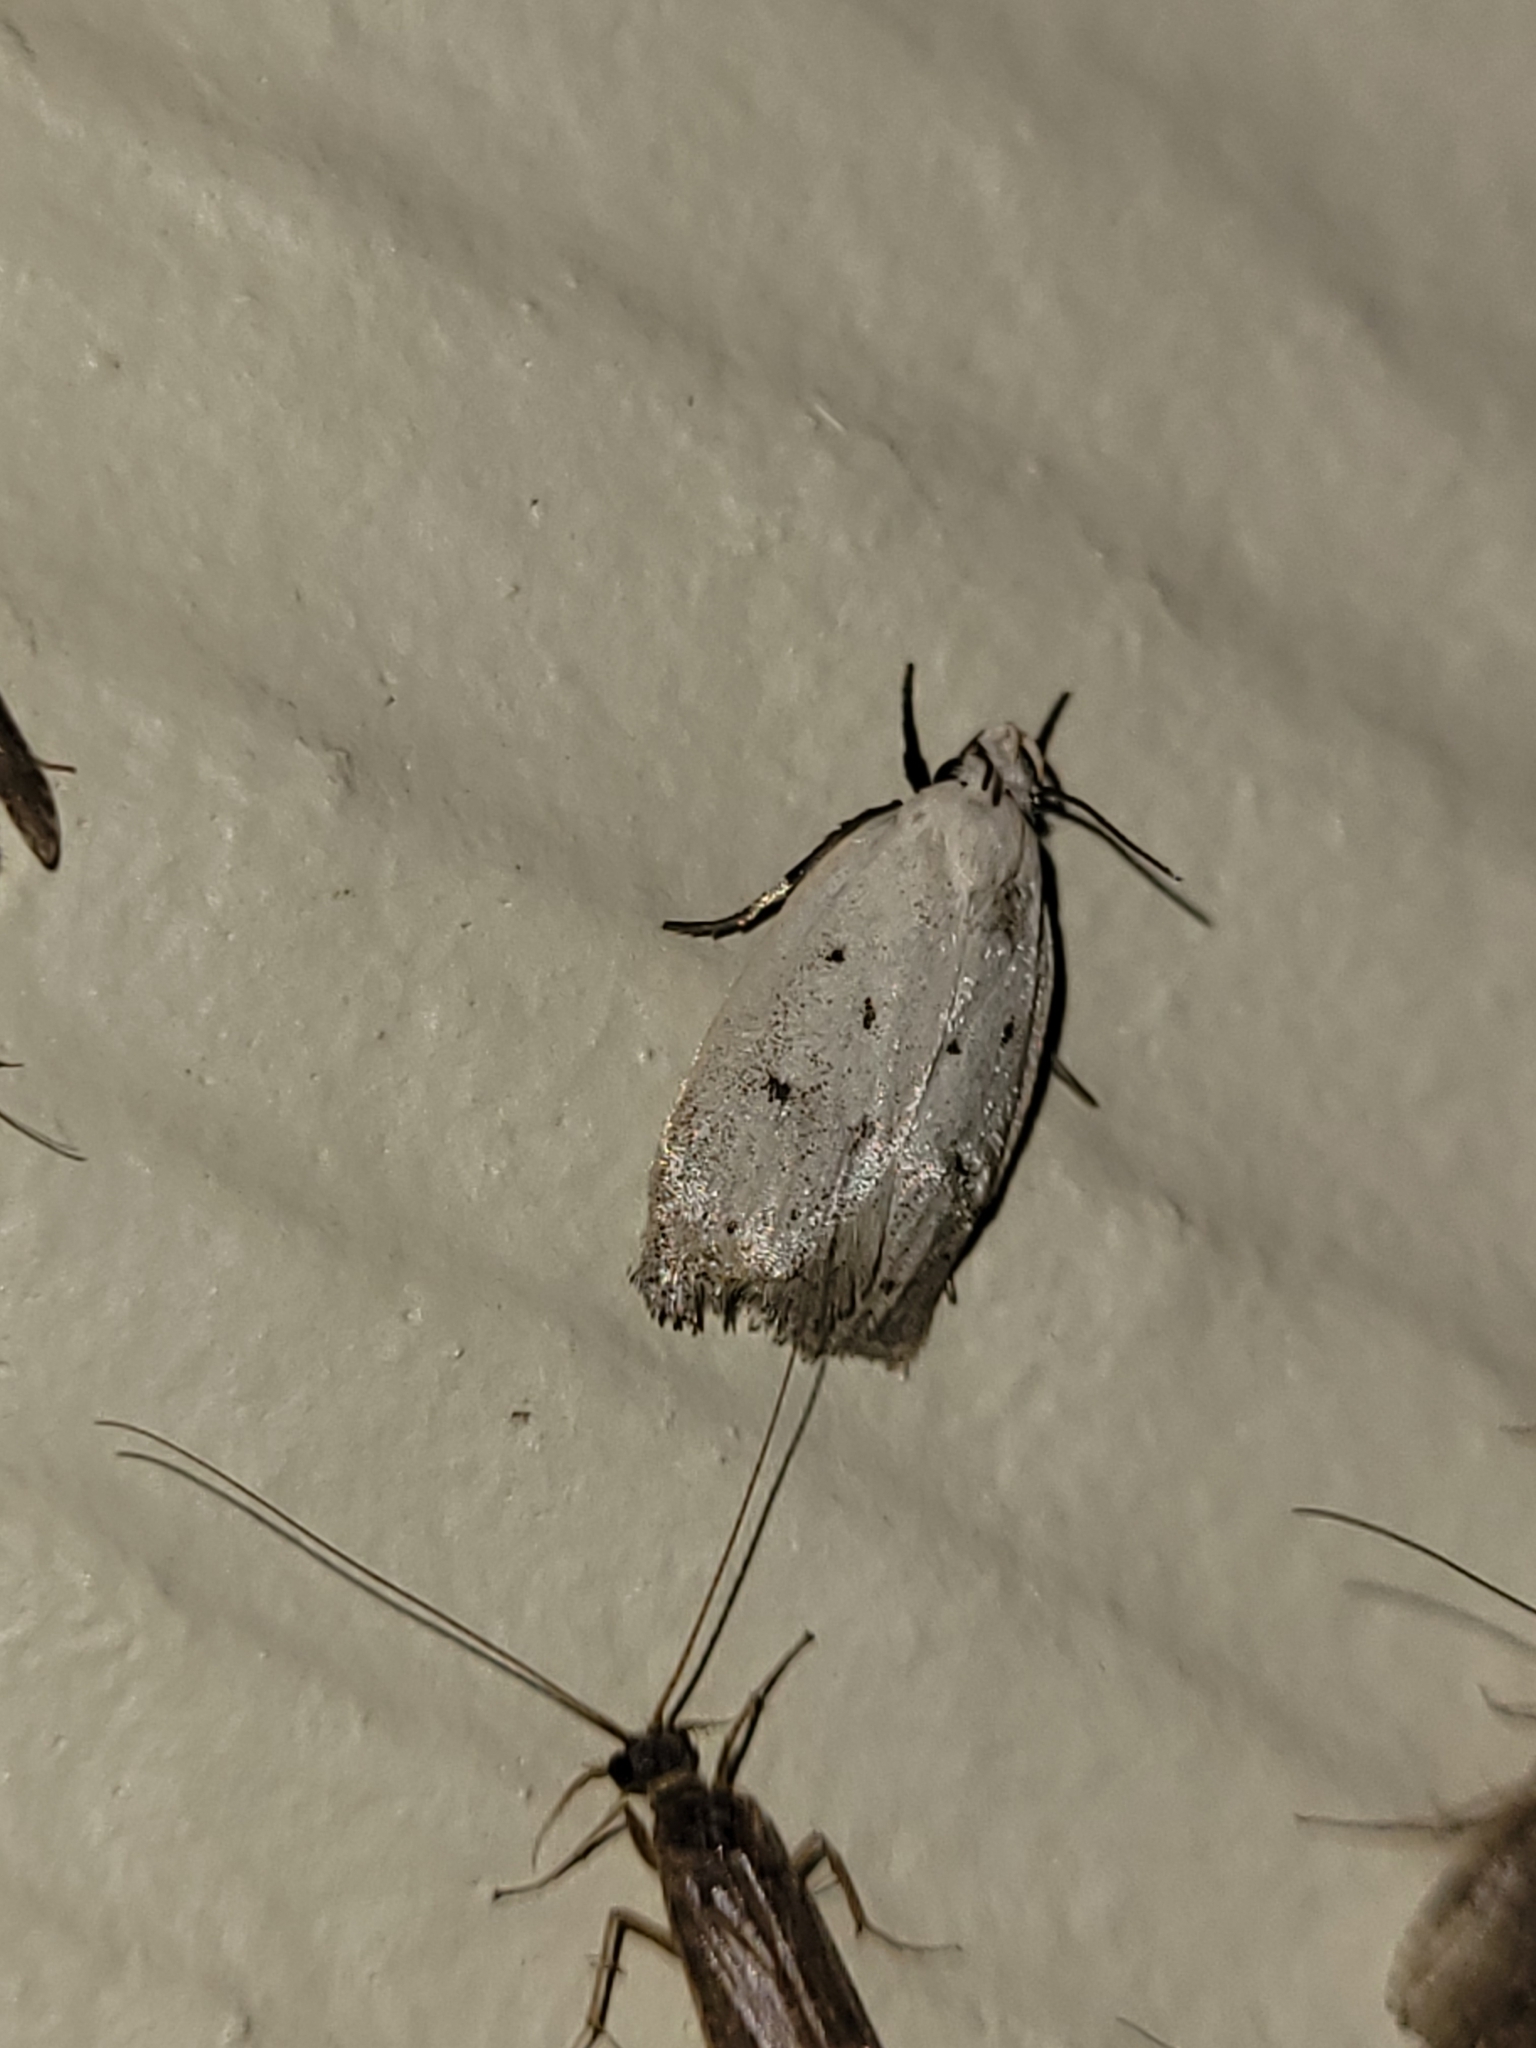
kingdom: Animalia
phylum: Arthropoda
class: Insecta
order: Lepidoptera
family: Oecophoridae
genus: Inga
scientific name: Inga cretacea
